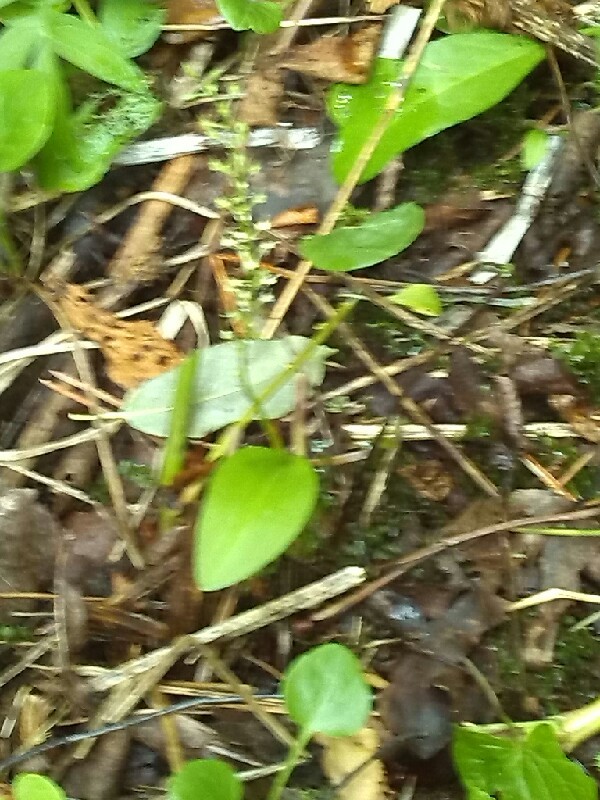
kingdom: Plantae
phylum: Tracheophyta
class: Liliopsida
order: Asparagales
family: Orchidaceae
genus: Malaxis
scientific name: Malaxis monophyllos
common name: White adder's-mouth
